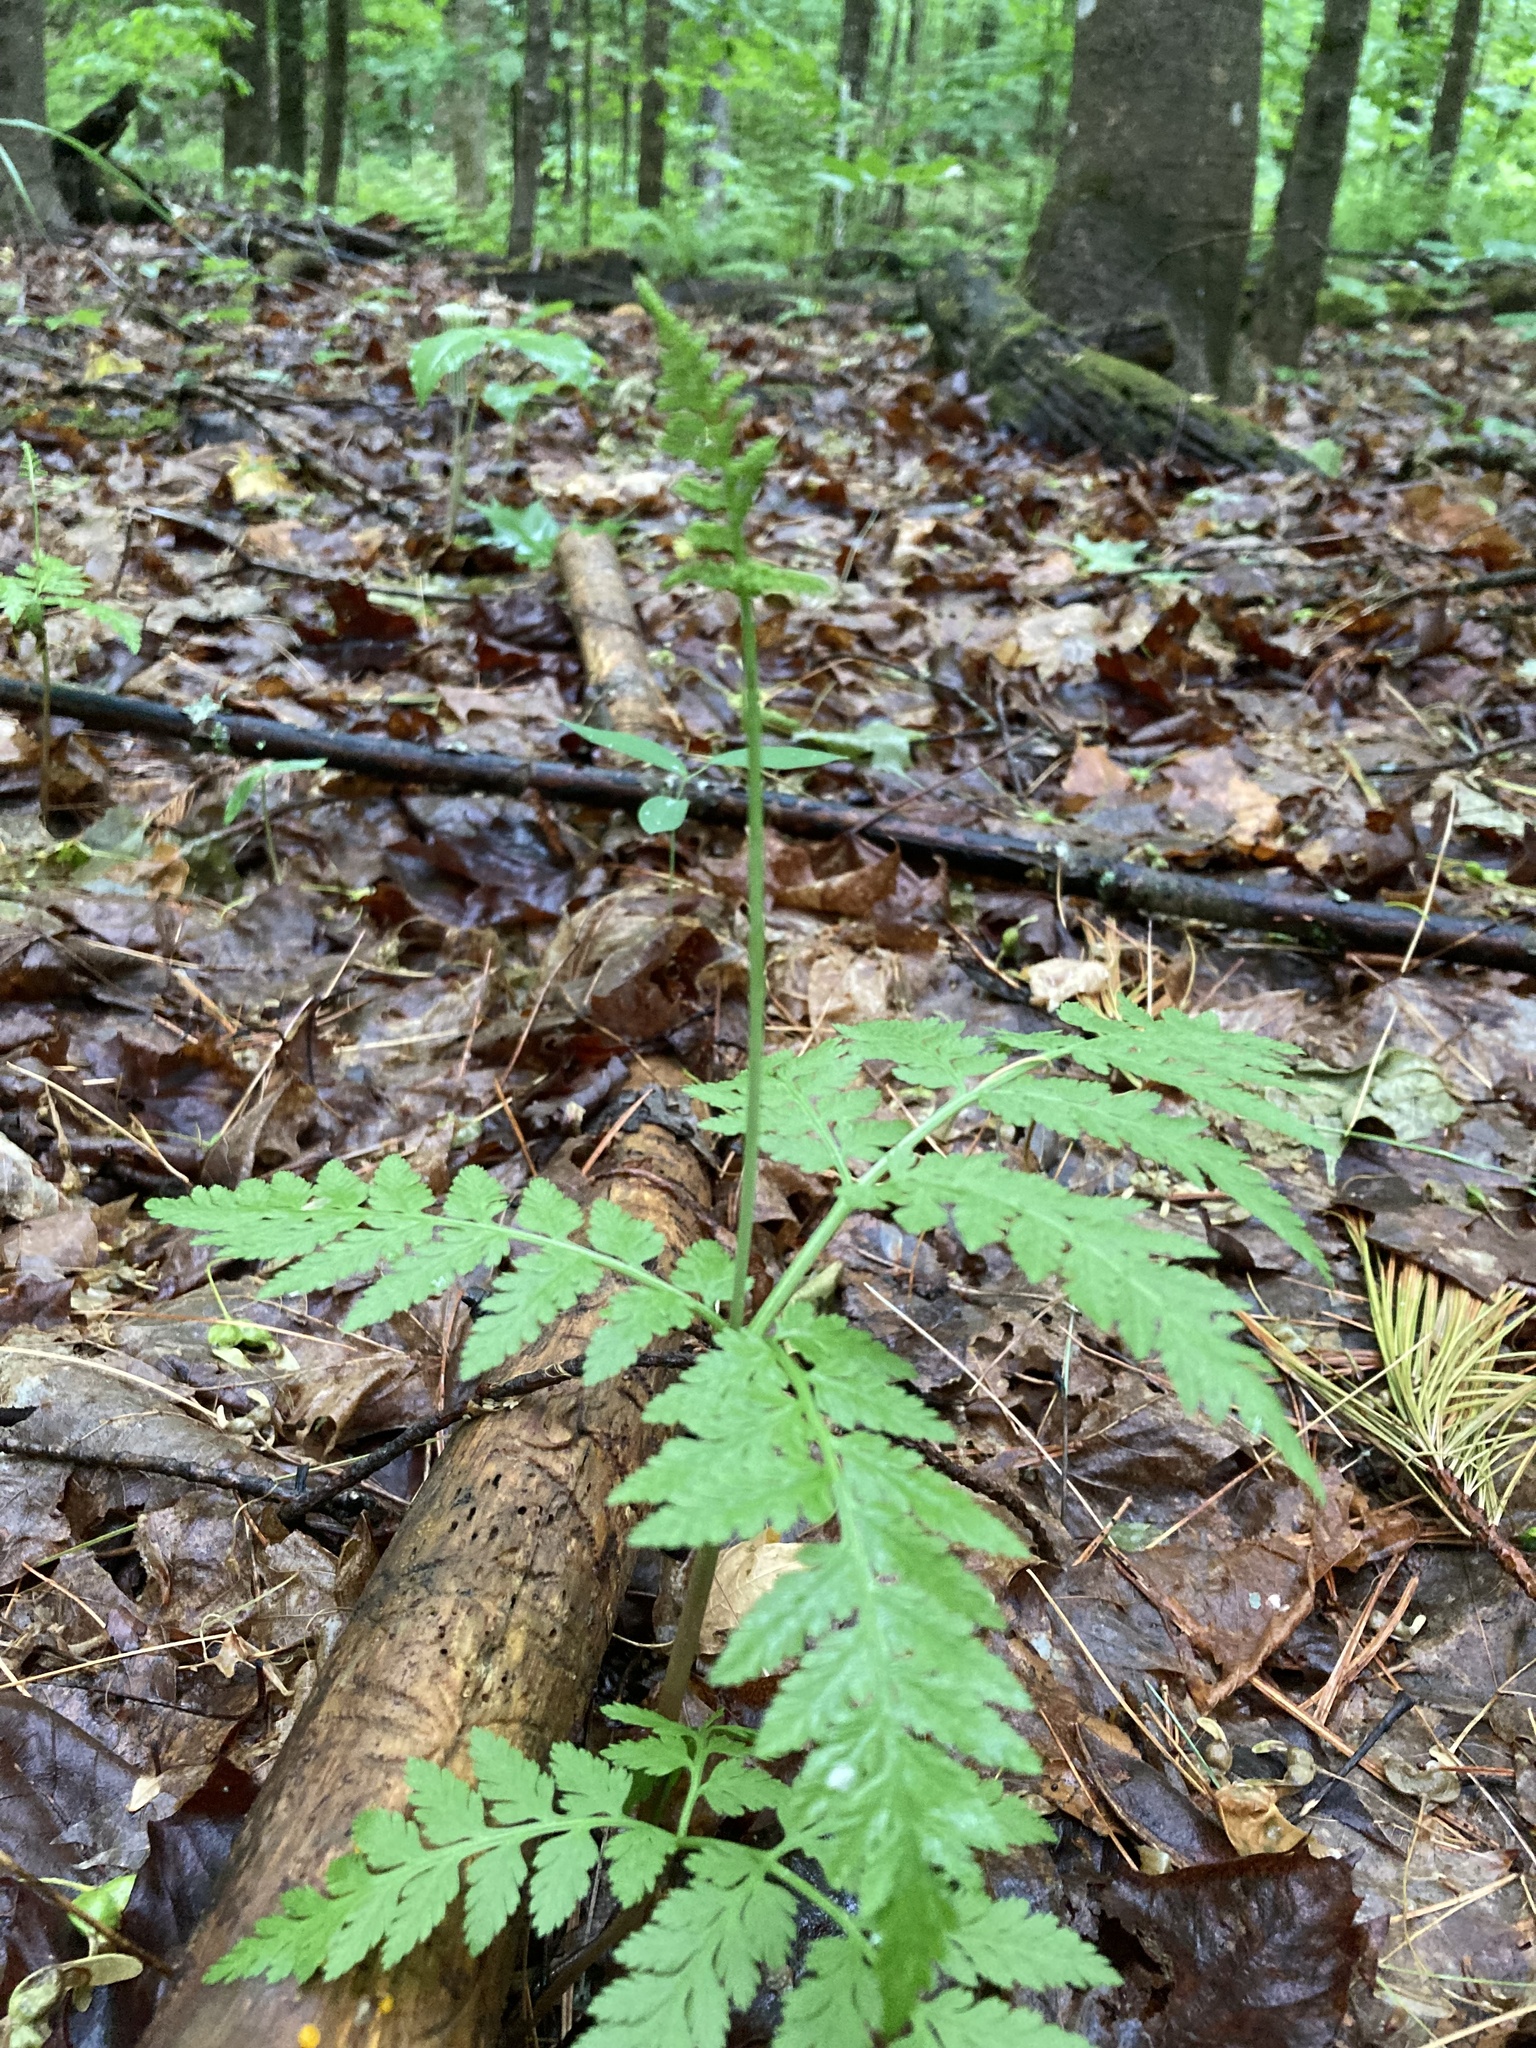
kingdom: Plantae
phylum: Tracheophyta
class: Polypodiopsida
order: Ophioglossales
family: Ophioglossaceae
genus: Botrypus
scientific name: Botrypus virginianus
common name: Common grapefern
